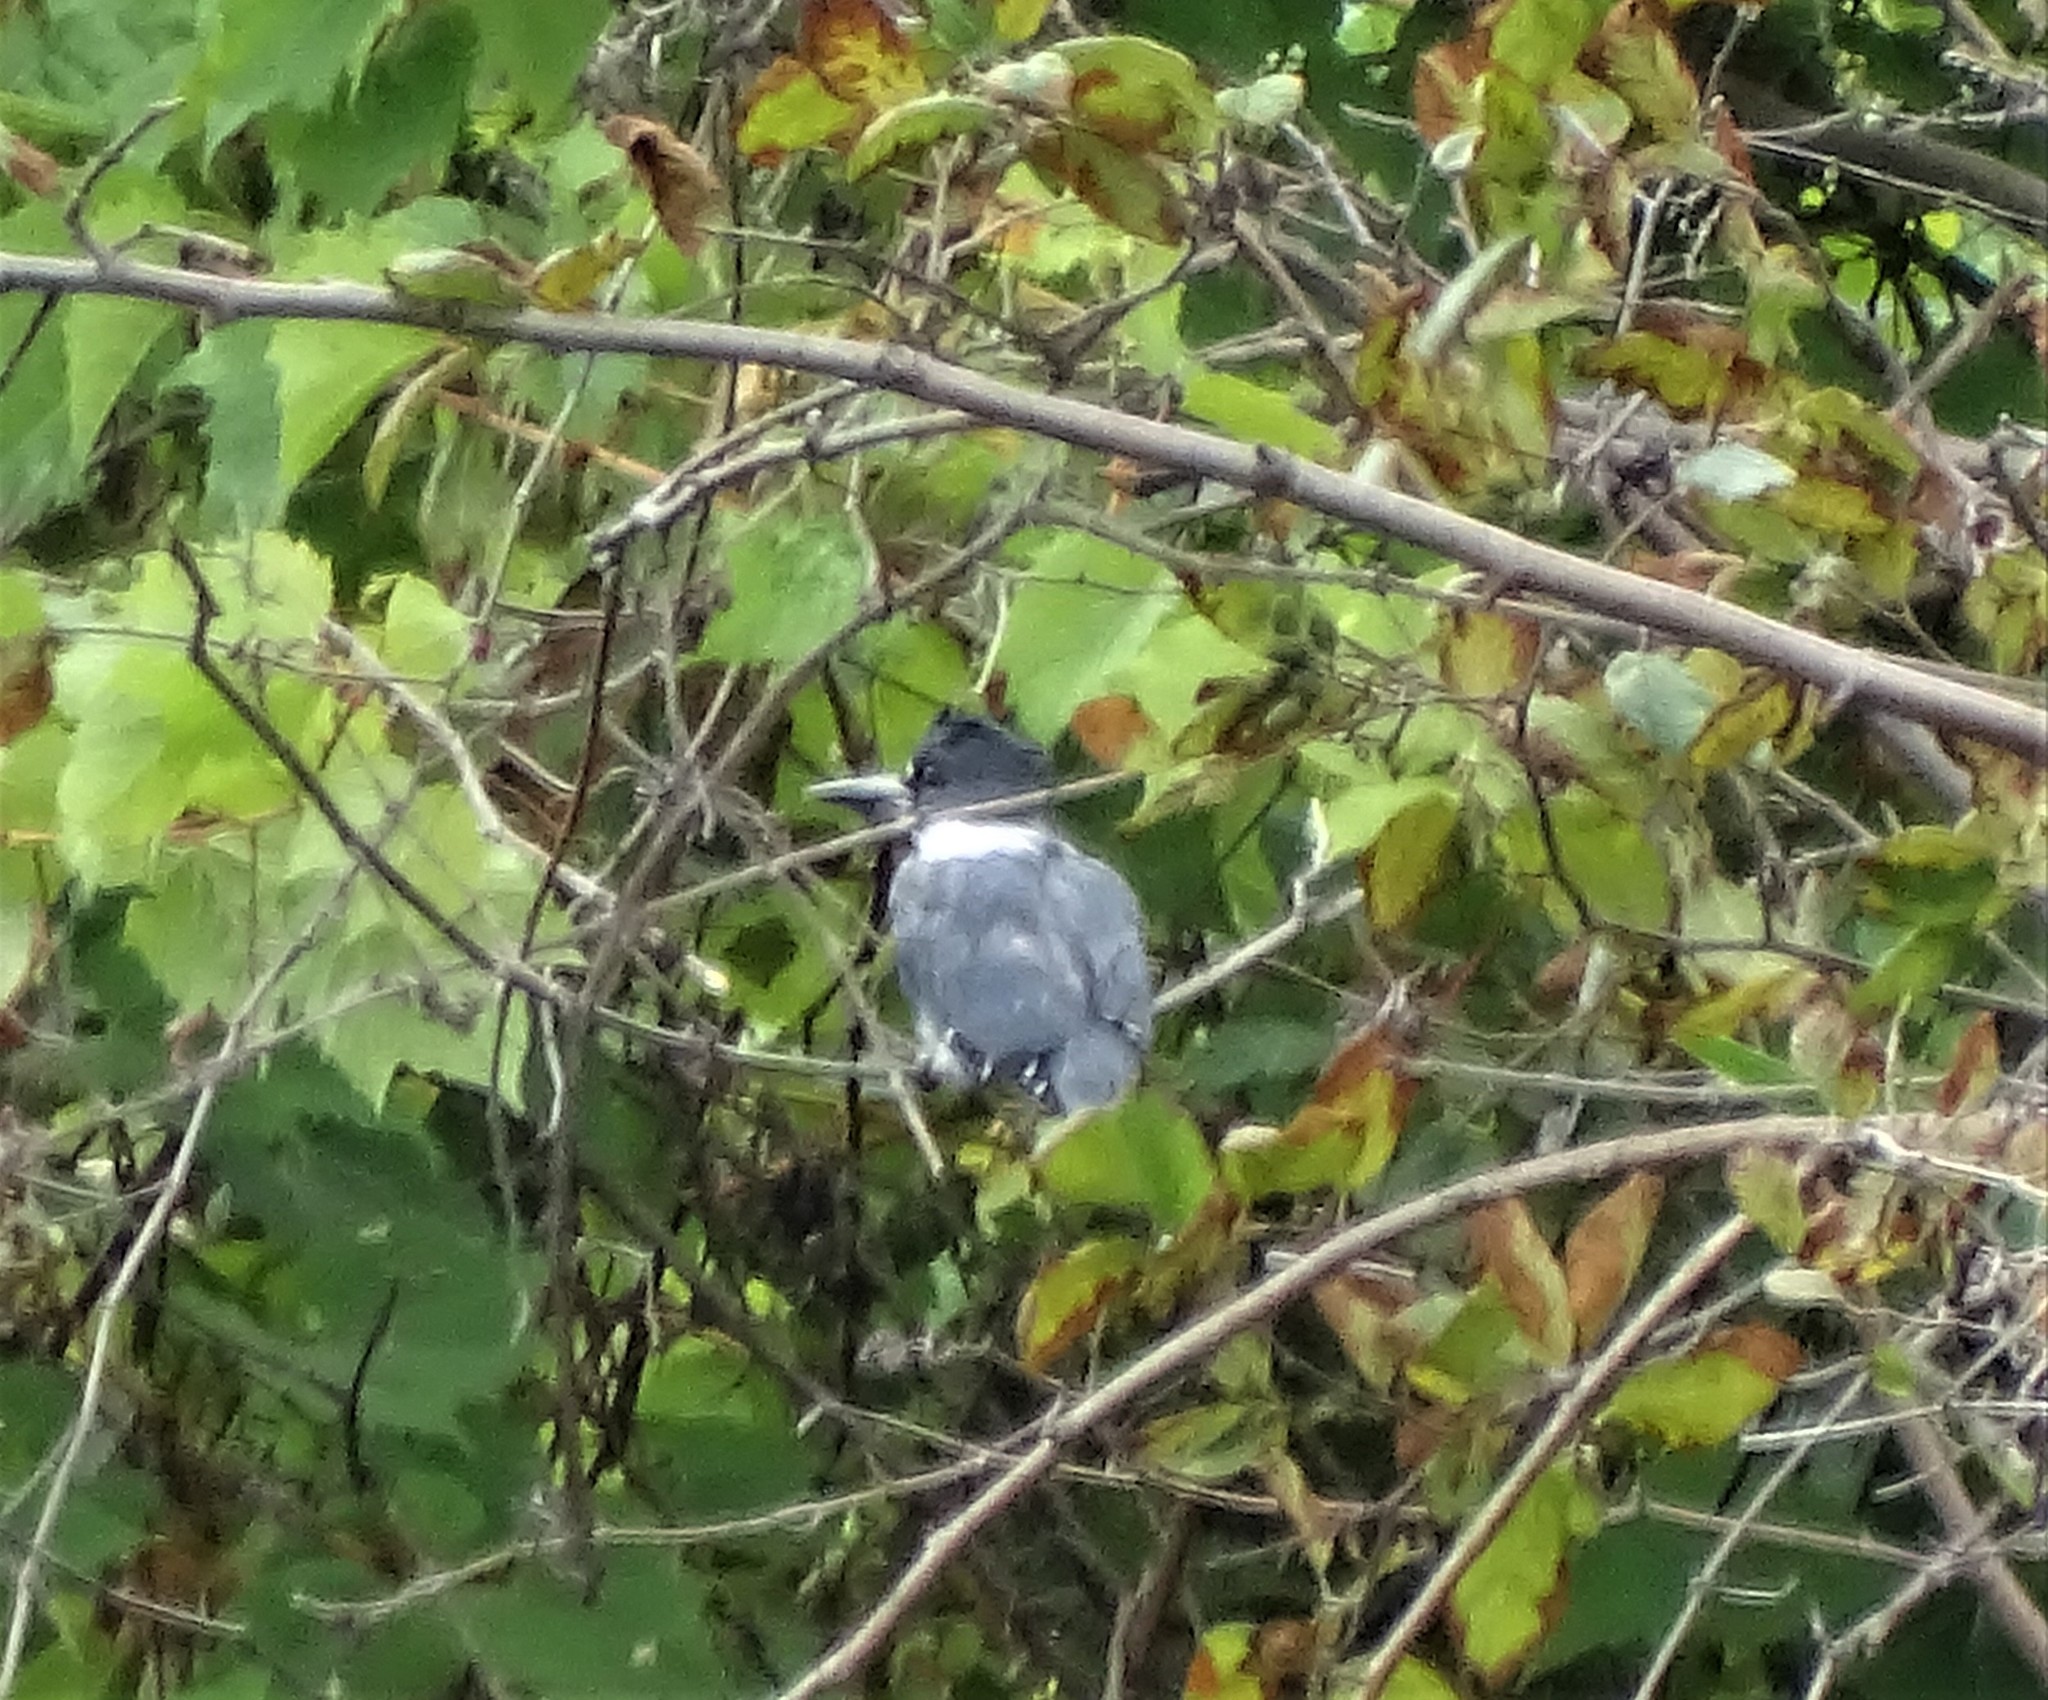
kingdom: Animalia
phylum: Chordata
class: Aves
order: Coraciiformes
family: Alcedinidae
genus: Megaceryle
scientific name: Megaceryle alcyon
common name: Belted kingfisher
